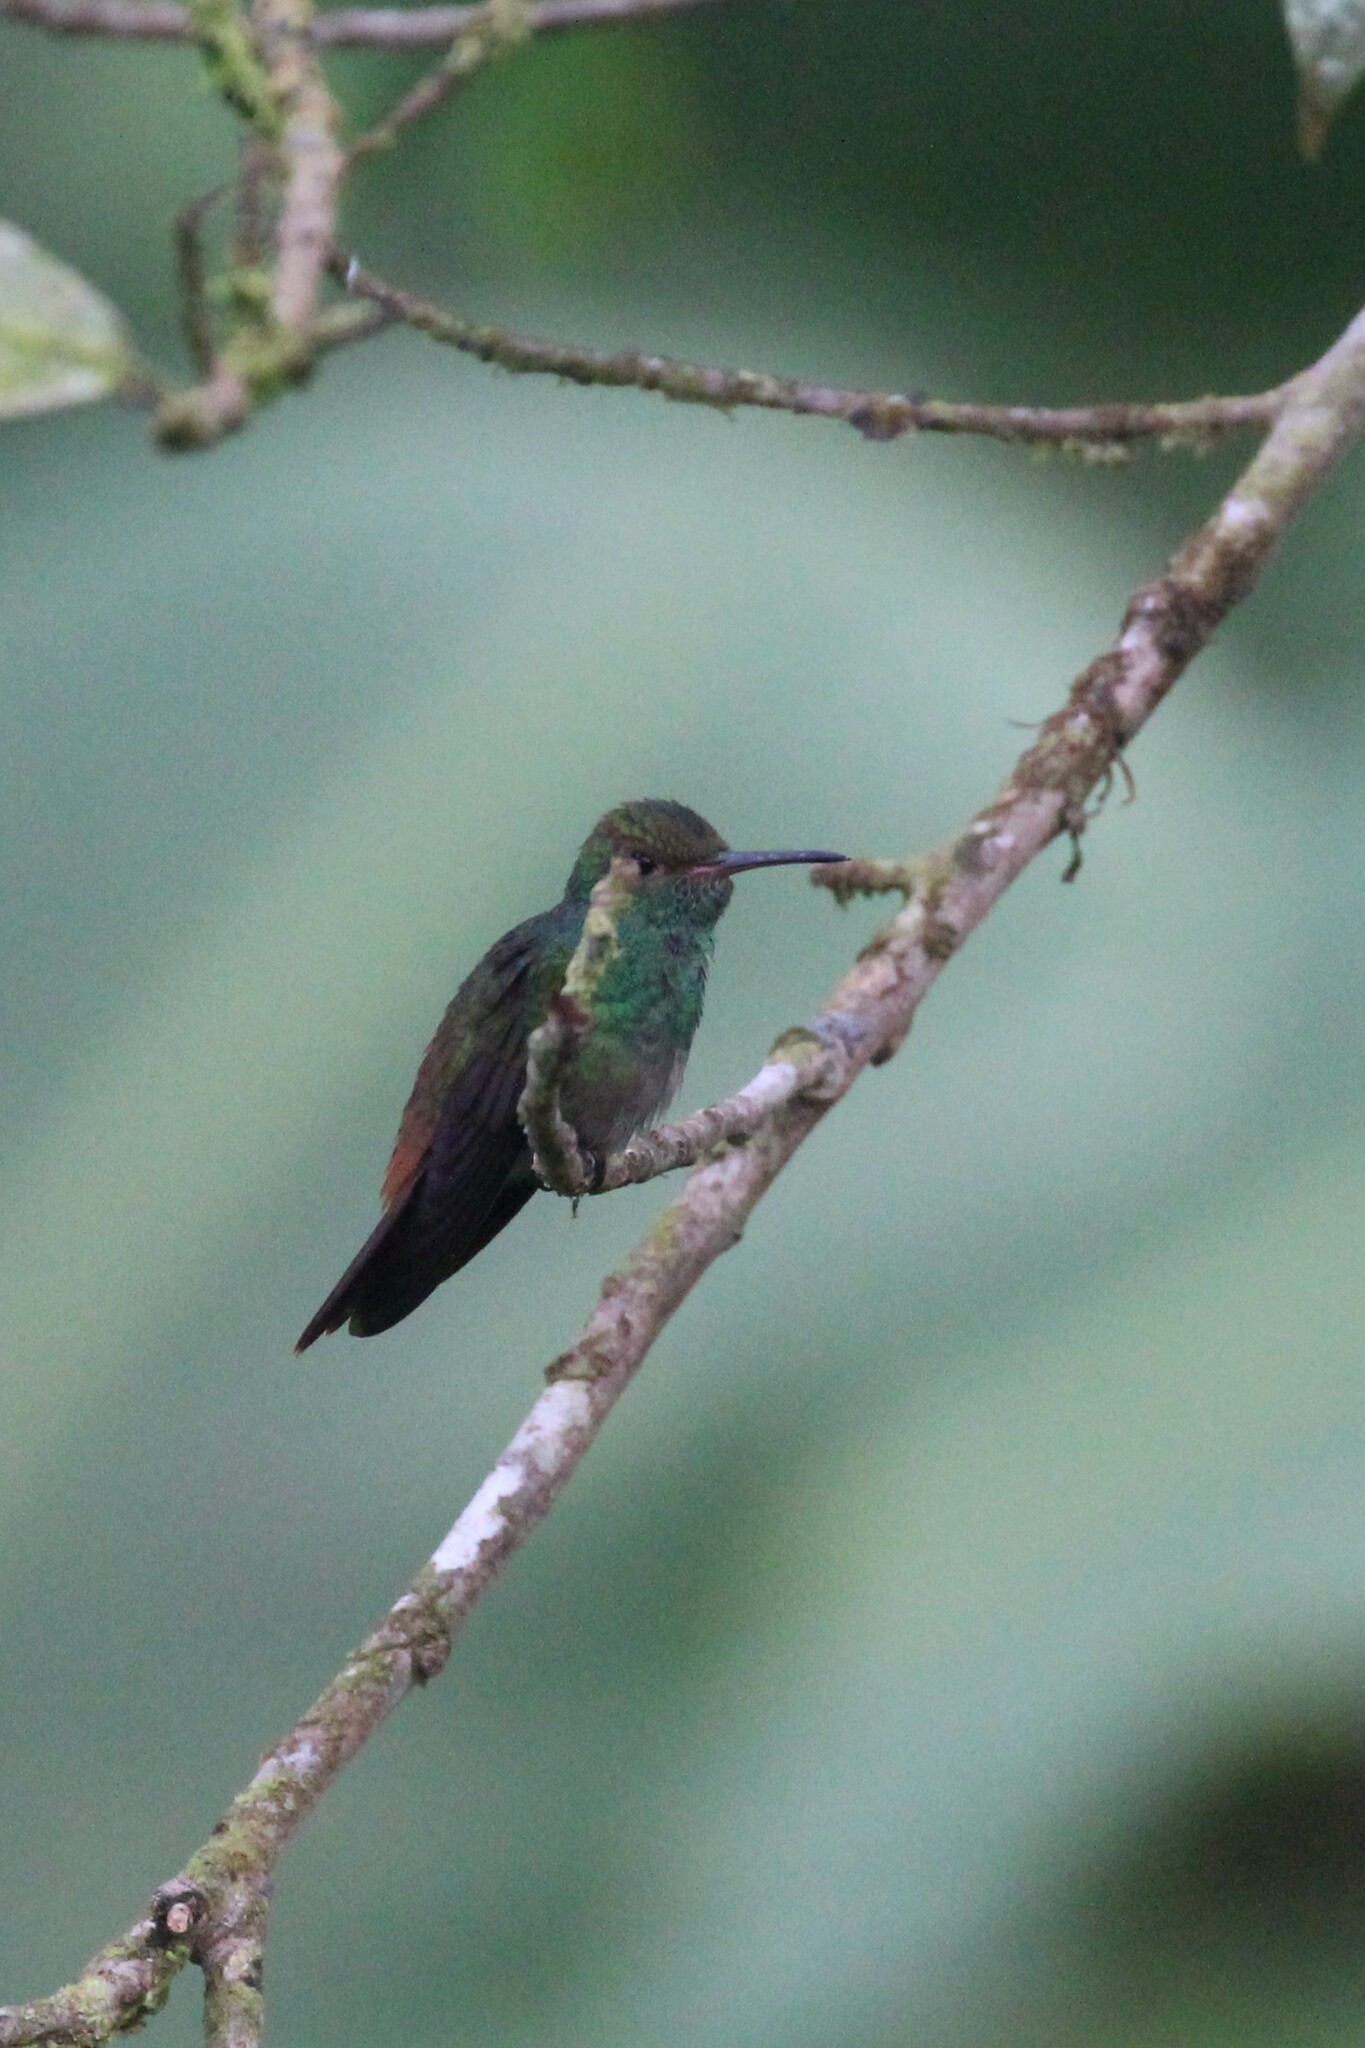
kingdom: Animalia
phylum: Chordata
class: Aves
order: Apodiformes
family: Trochilidae
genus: Amazilia
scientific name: Amazilia tzacatl
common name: Rufous-tailed hummingbird
